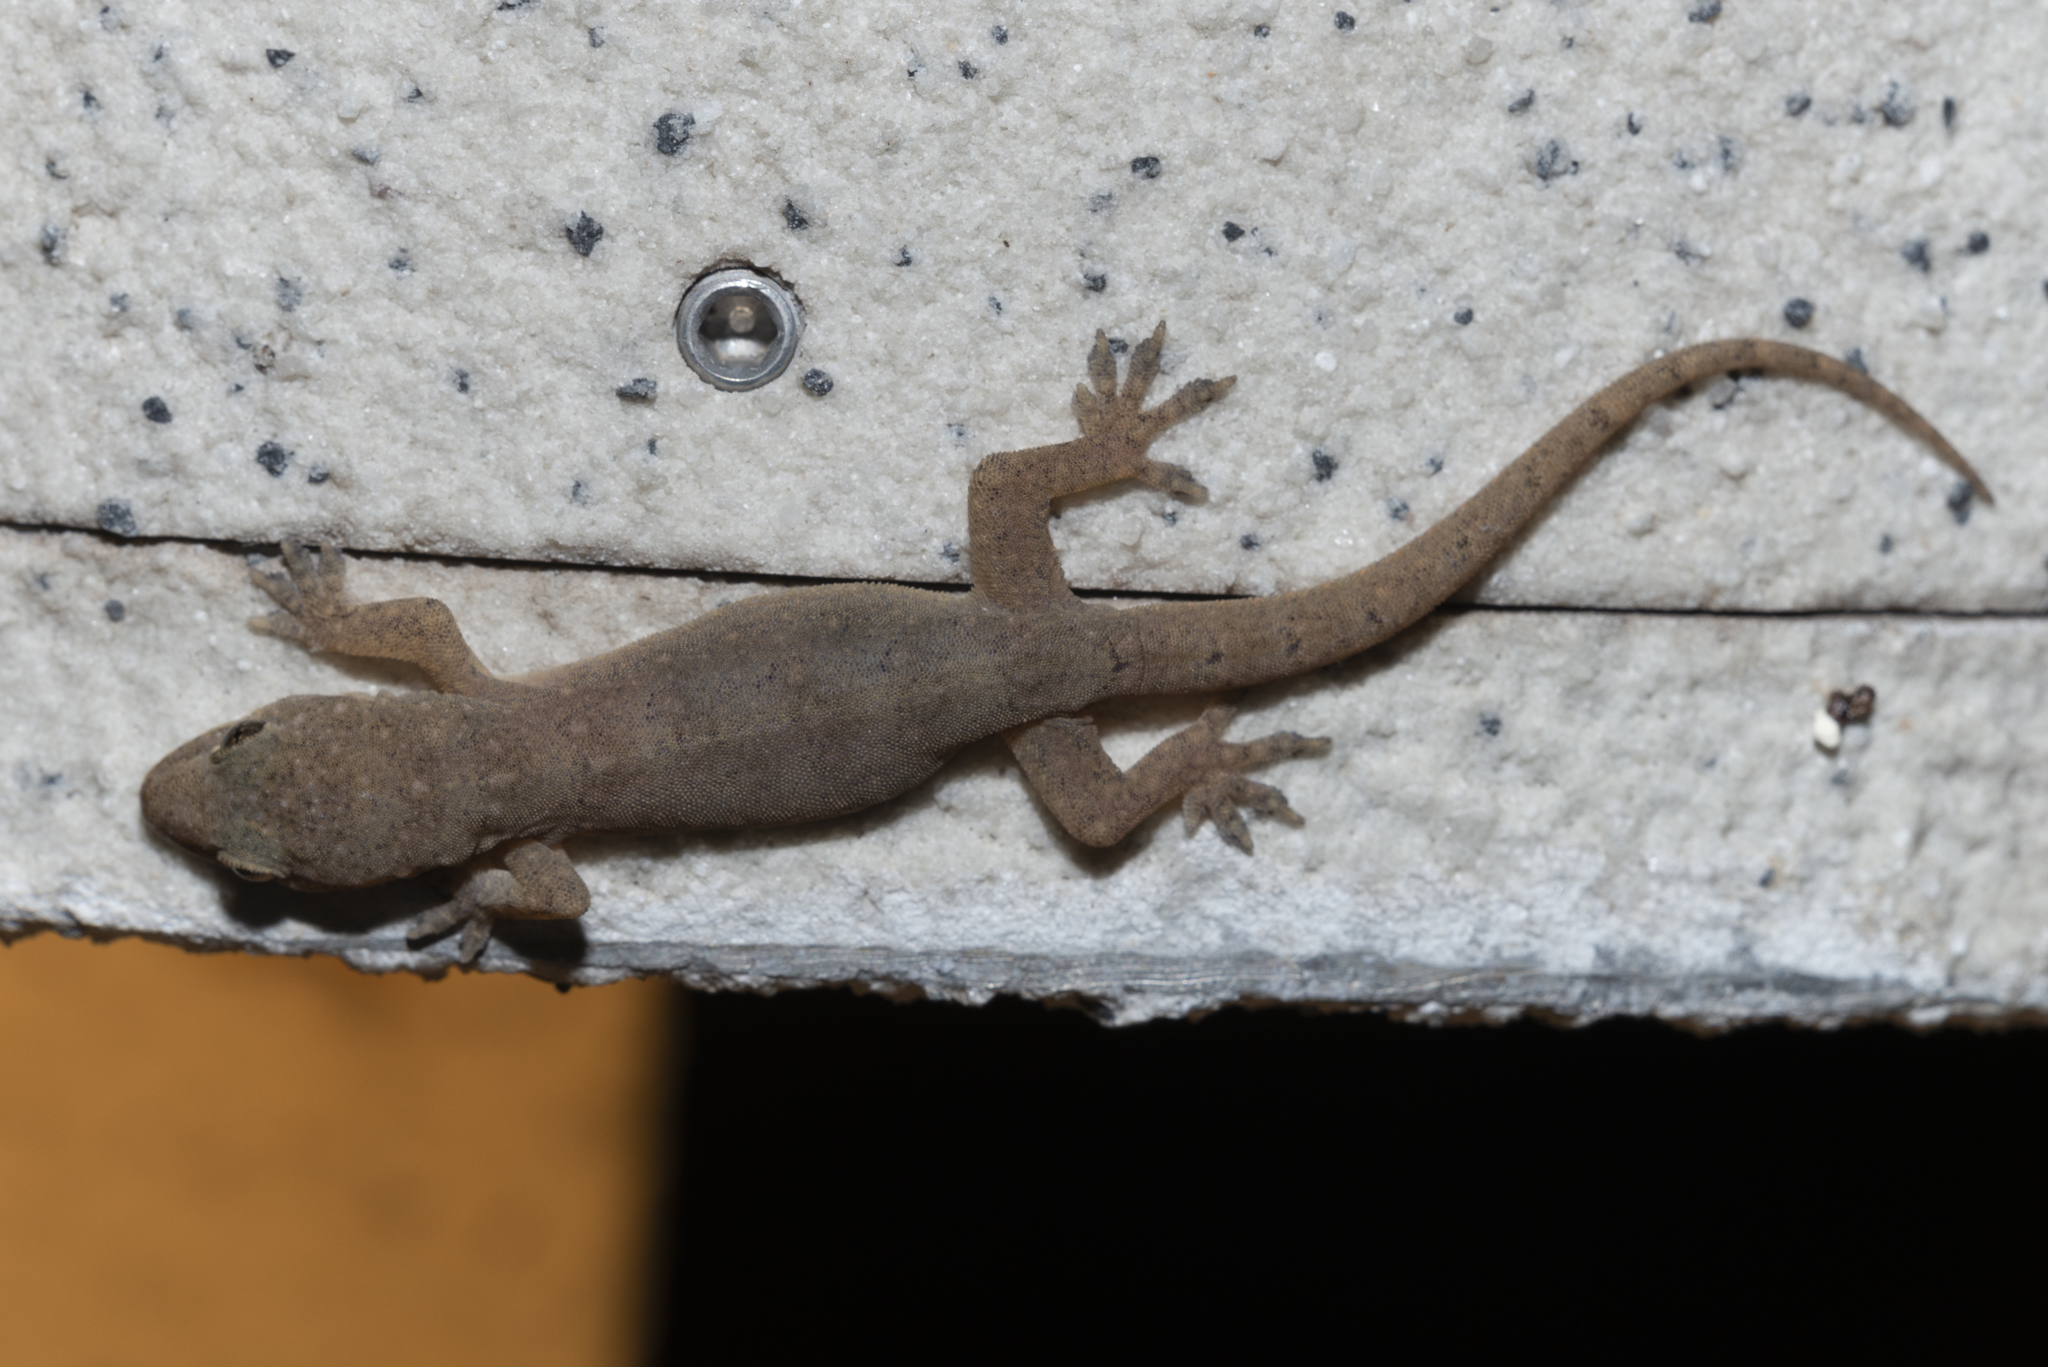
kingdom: Animalia
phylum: Chordata
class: Squamata
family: Gekkonidae
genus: Hemidactylus
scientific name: Hemidactylus bowringii
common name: Oriental leaf-toed gecko
